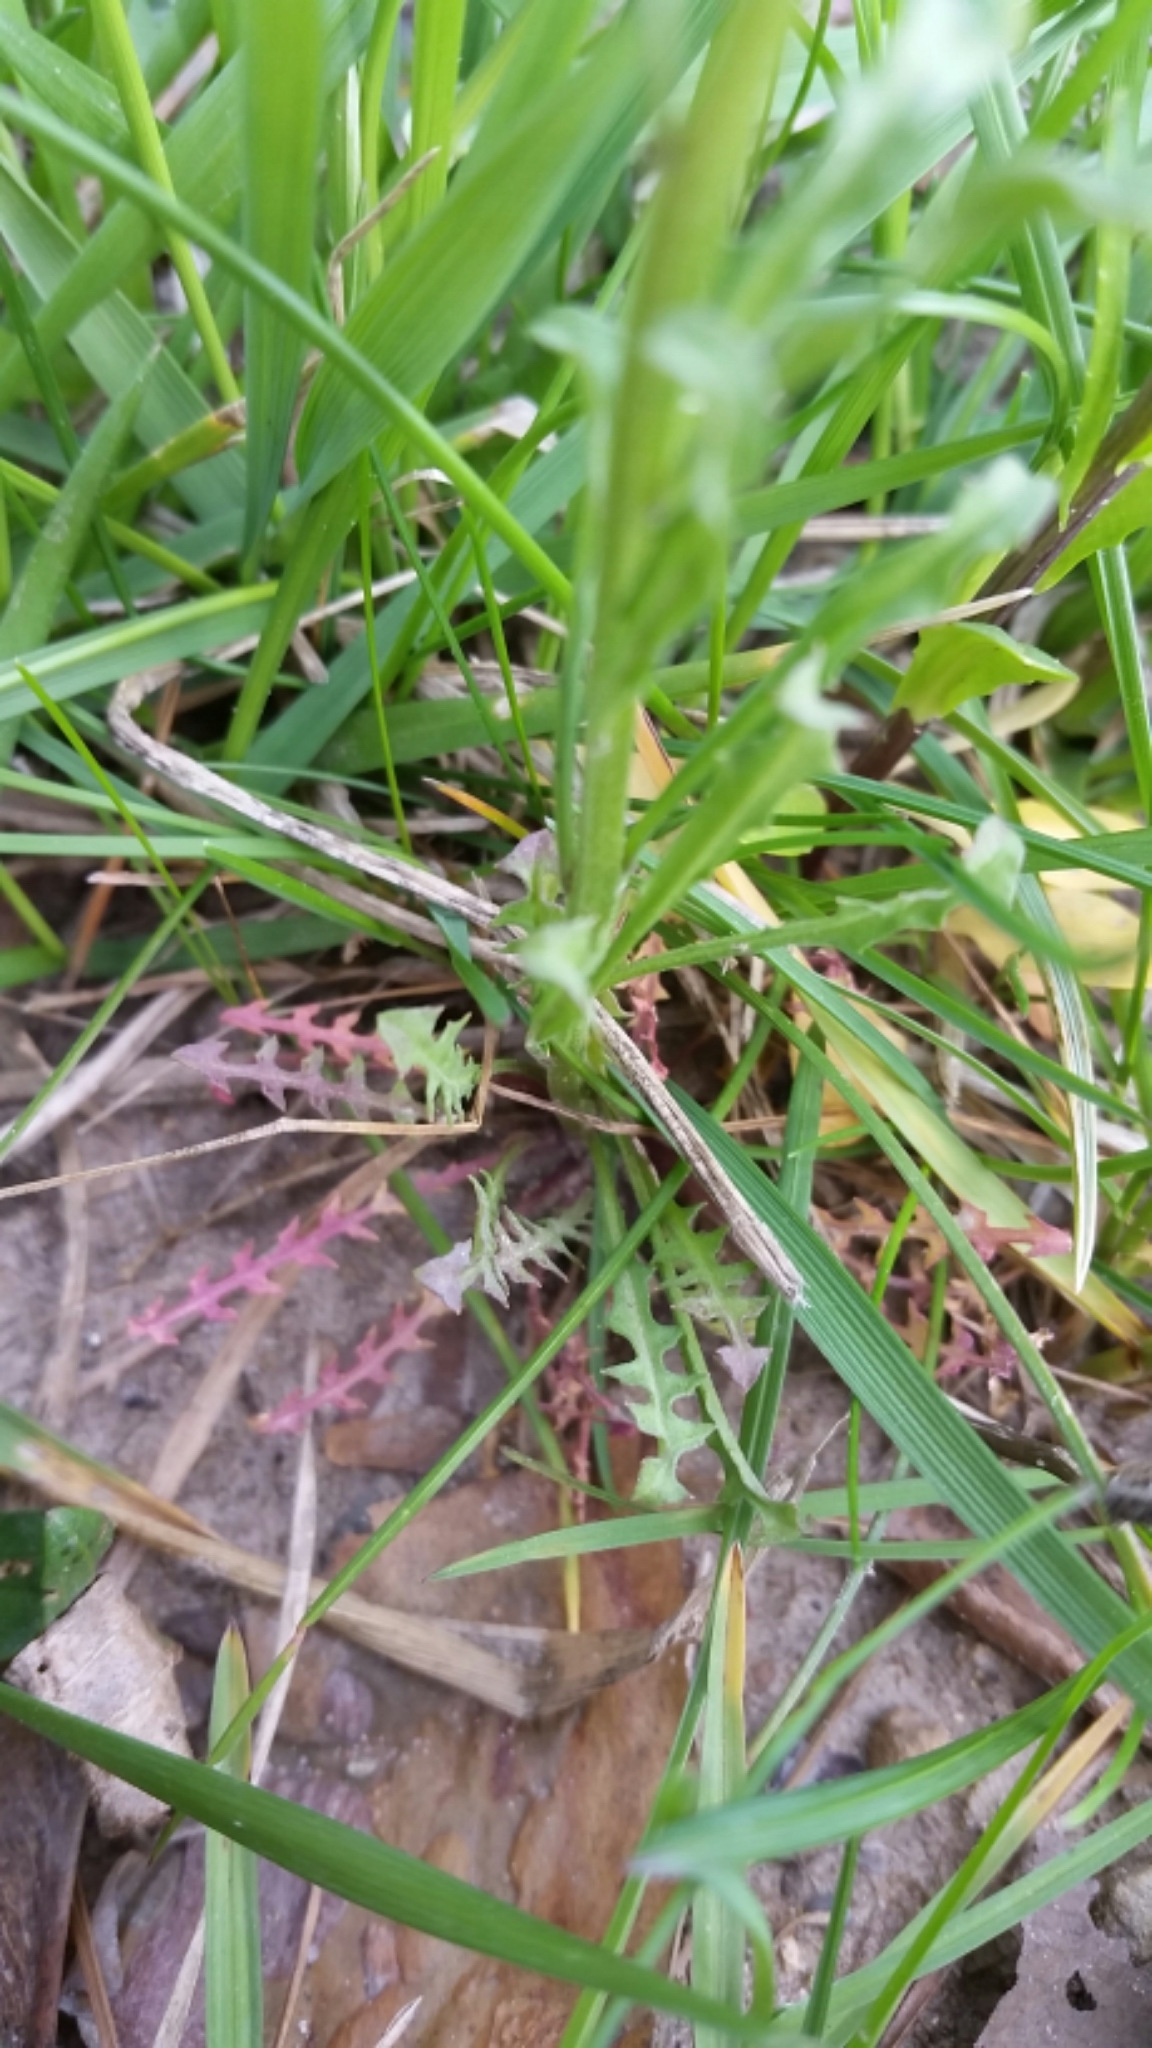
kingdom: Plantae
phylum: Tracheophyta
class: Magnoliopsida
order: Brassicales
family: Brassicaceae
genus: Erysimum
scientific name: Erysimum repandum
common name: Spreading wallflower
